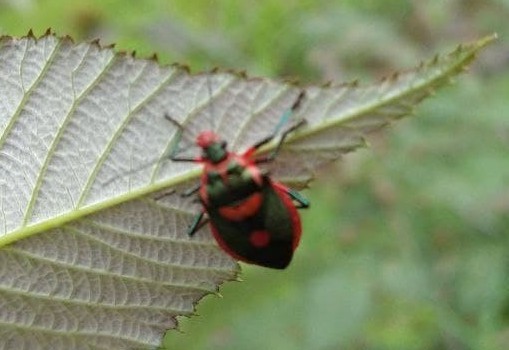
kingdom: Animalia
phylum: Arthropoda
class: Insecta
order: Hemiptera
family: Pentatomidae
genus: Euthyrhynchus
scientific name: Euthyrhynchus floridanus
